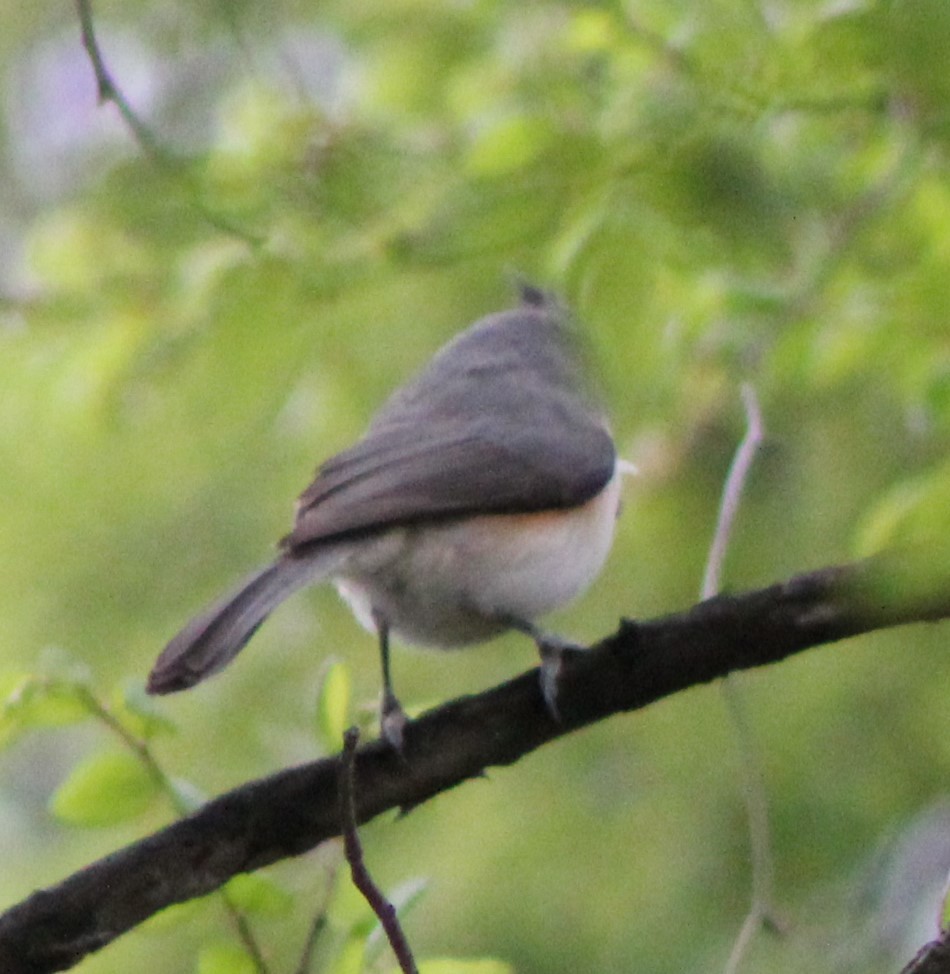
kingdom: Animalia
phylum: Chordata
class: Aves
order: Passeriformes
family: Paridae
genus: Baeolophus
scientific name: Baeolophus bicolor
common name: Tufted titmouse
